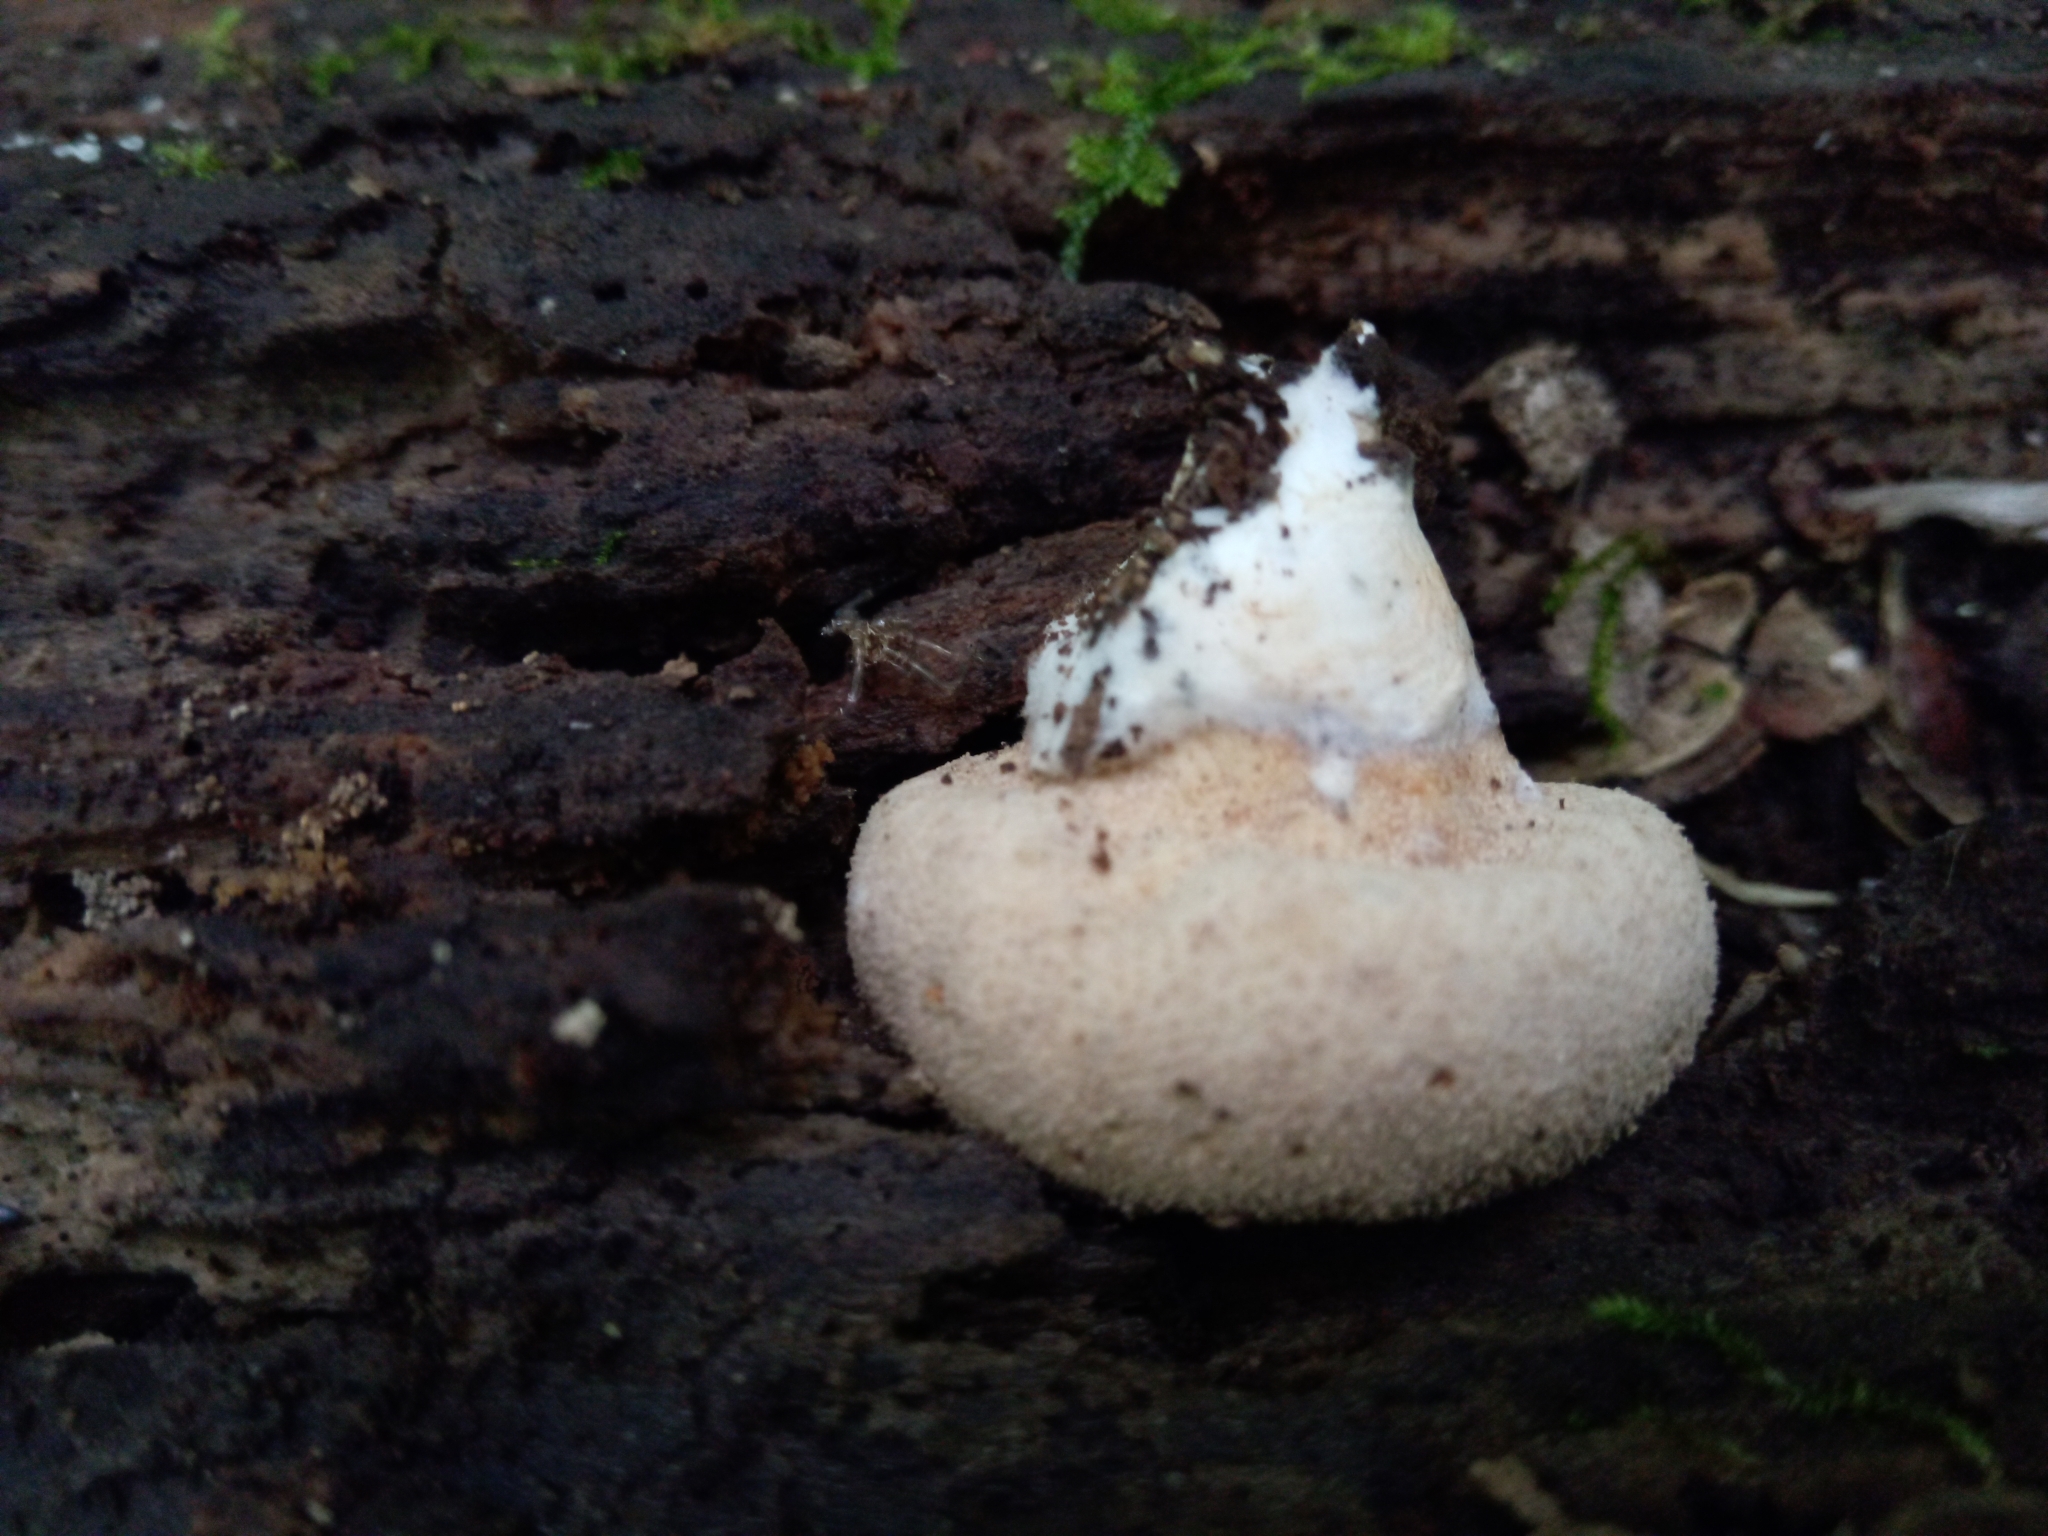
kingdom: Fungi
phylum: Basidiomycota
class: Agaricomycetes
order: Agaricales
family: Lycoperdaceae
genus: Lycoperdon
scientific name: Lycoperdon subincarnatum
